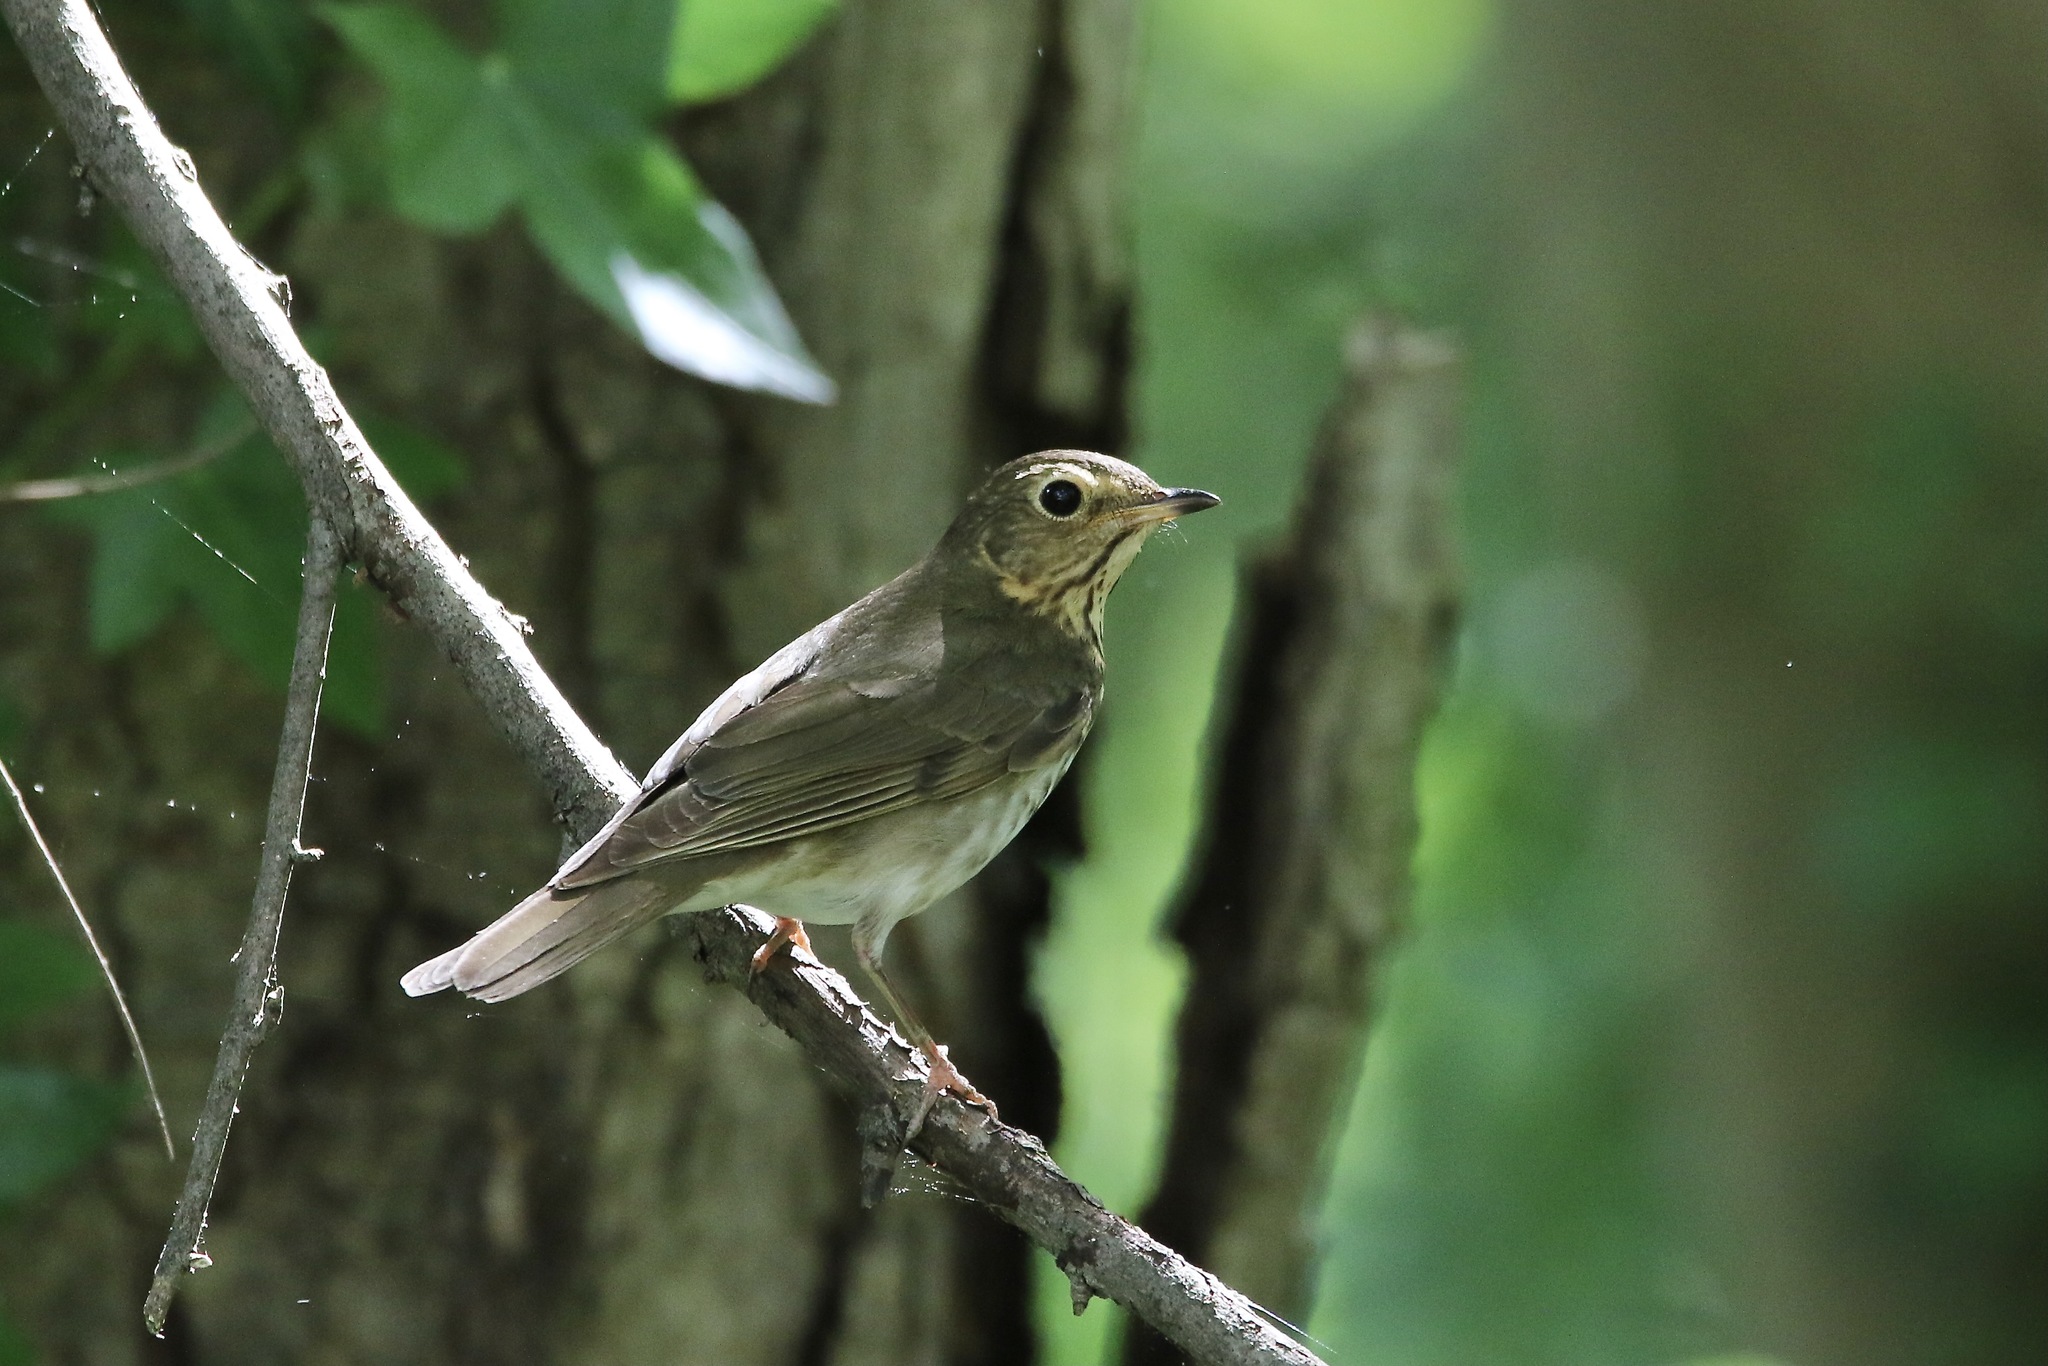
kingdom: Animalia
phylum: Chordata
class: Aves
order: Passeriformes
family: Turdidae
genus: Catharus
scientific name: Catharus ustulatus
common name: Swainson's thrush
